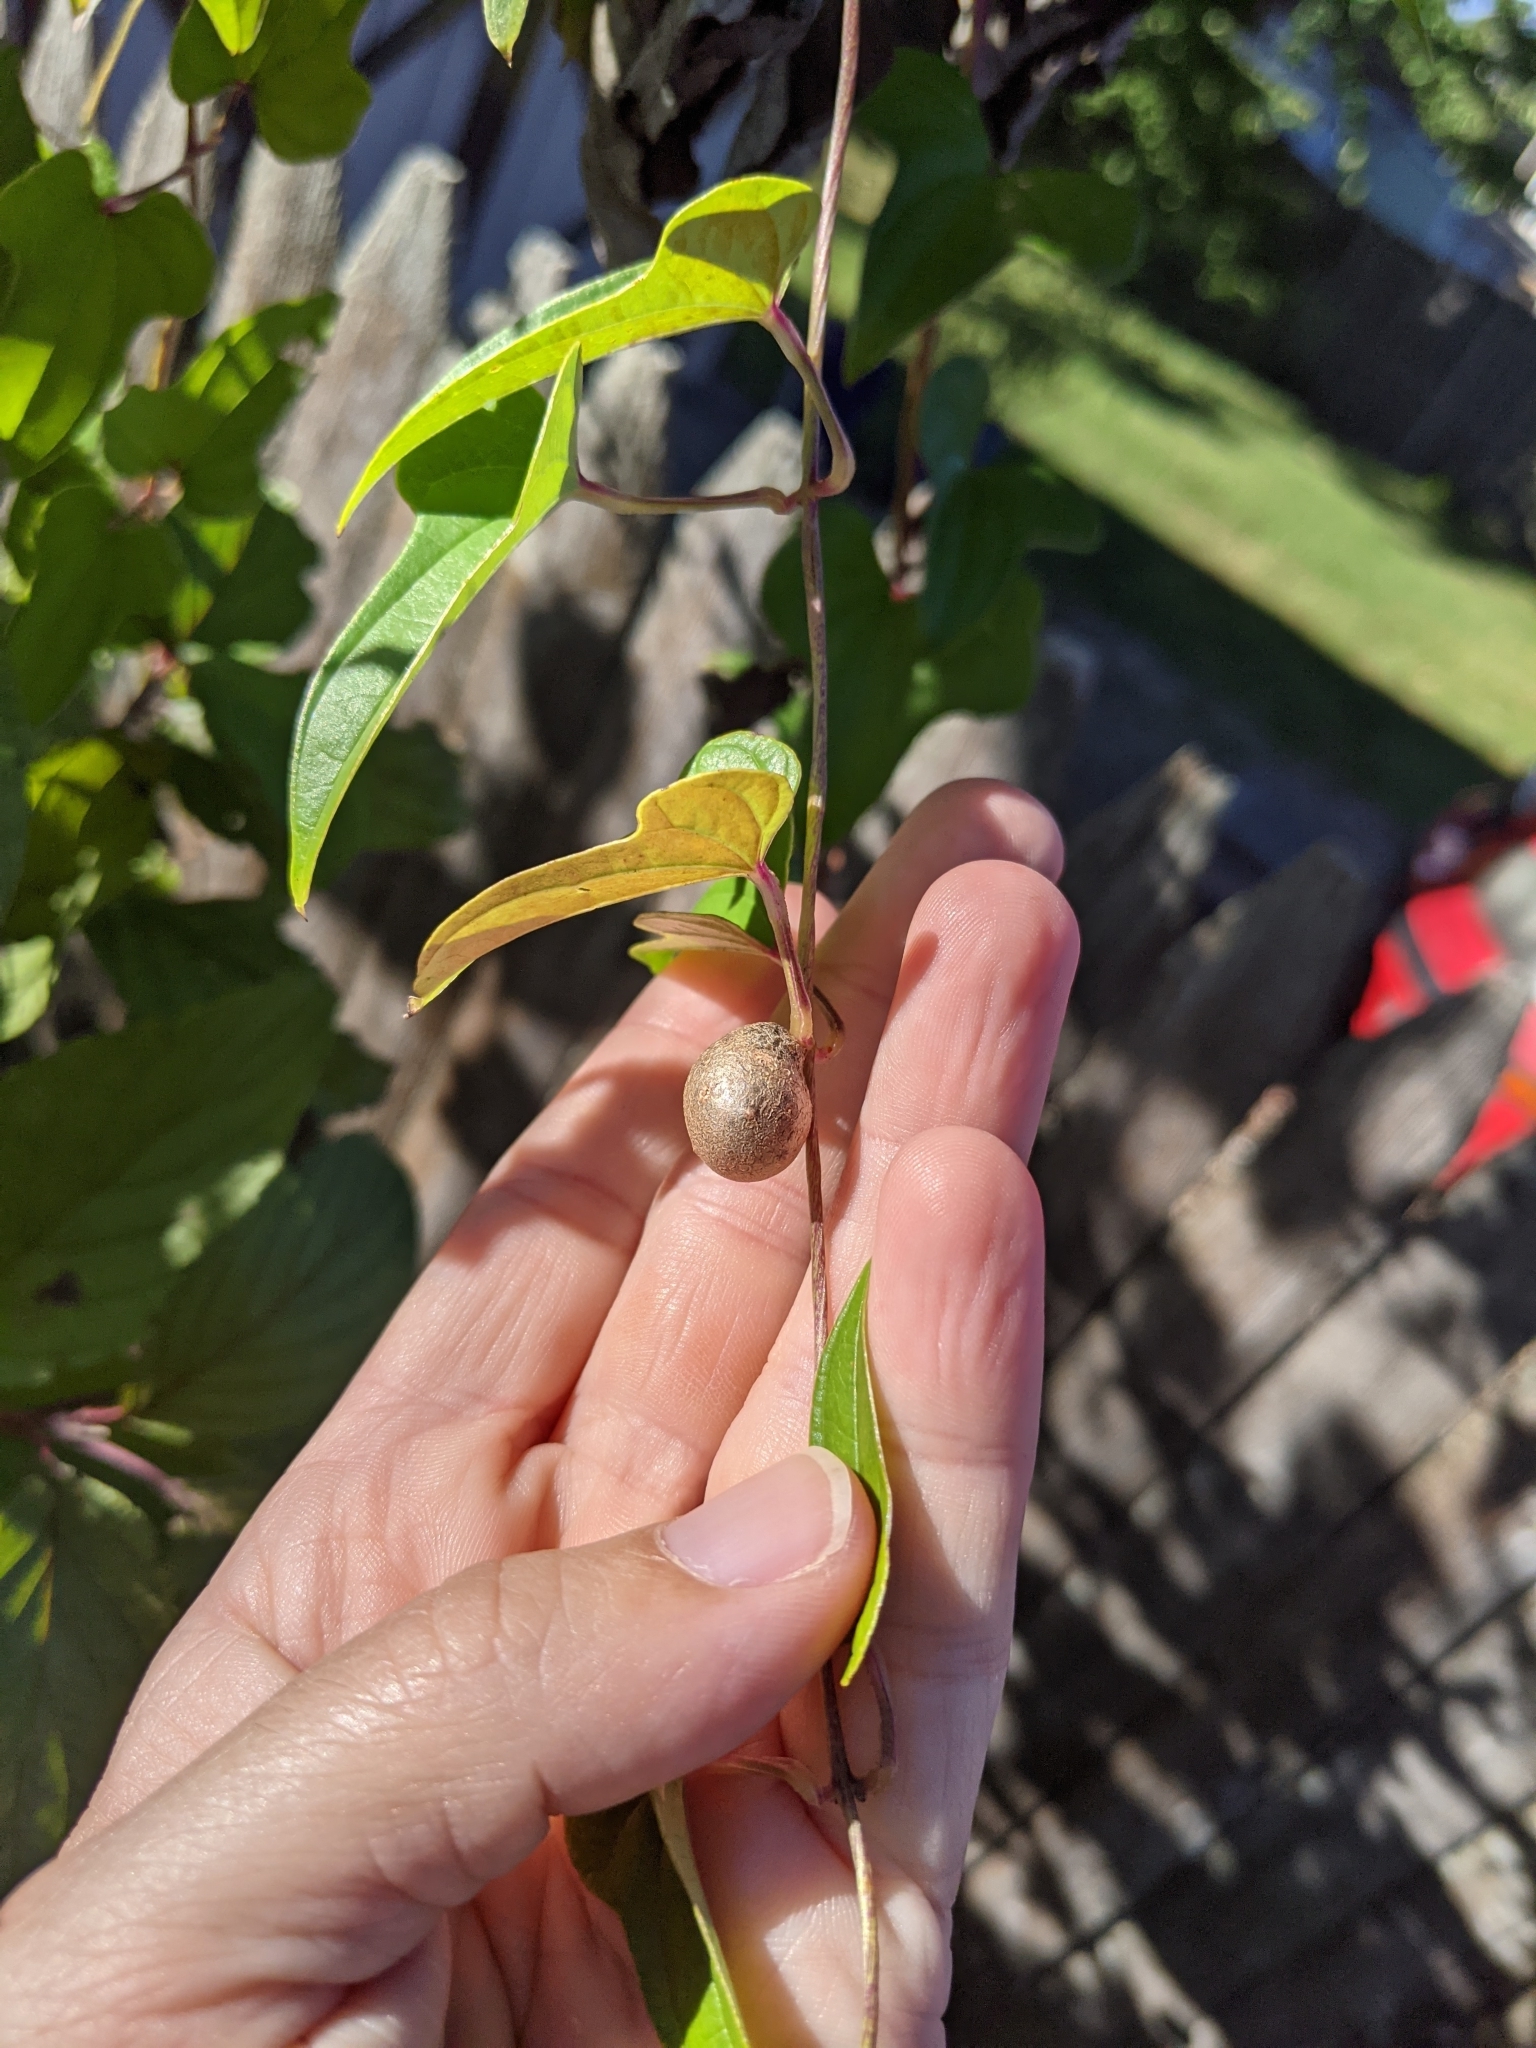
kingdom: Plantae
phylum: Tracheophyta
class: Liliopsida
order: Dioscoreales
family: Dioscoreaceae
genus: Dioscorea
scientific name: Dioscorea polystachya
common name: Chinese yam
